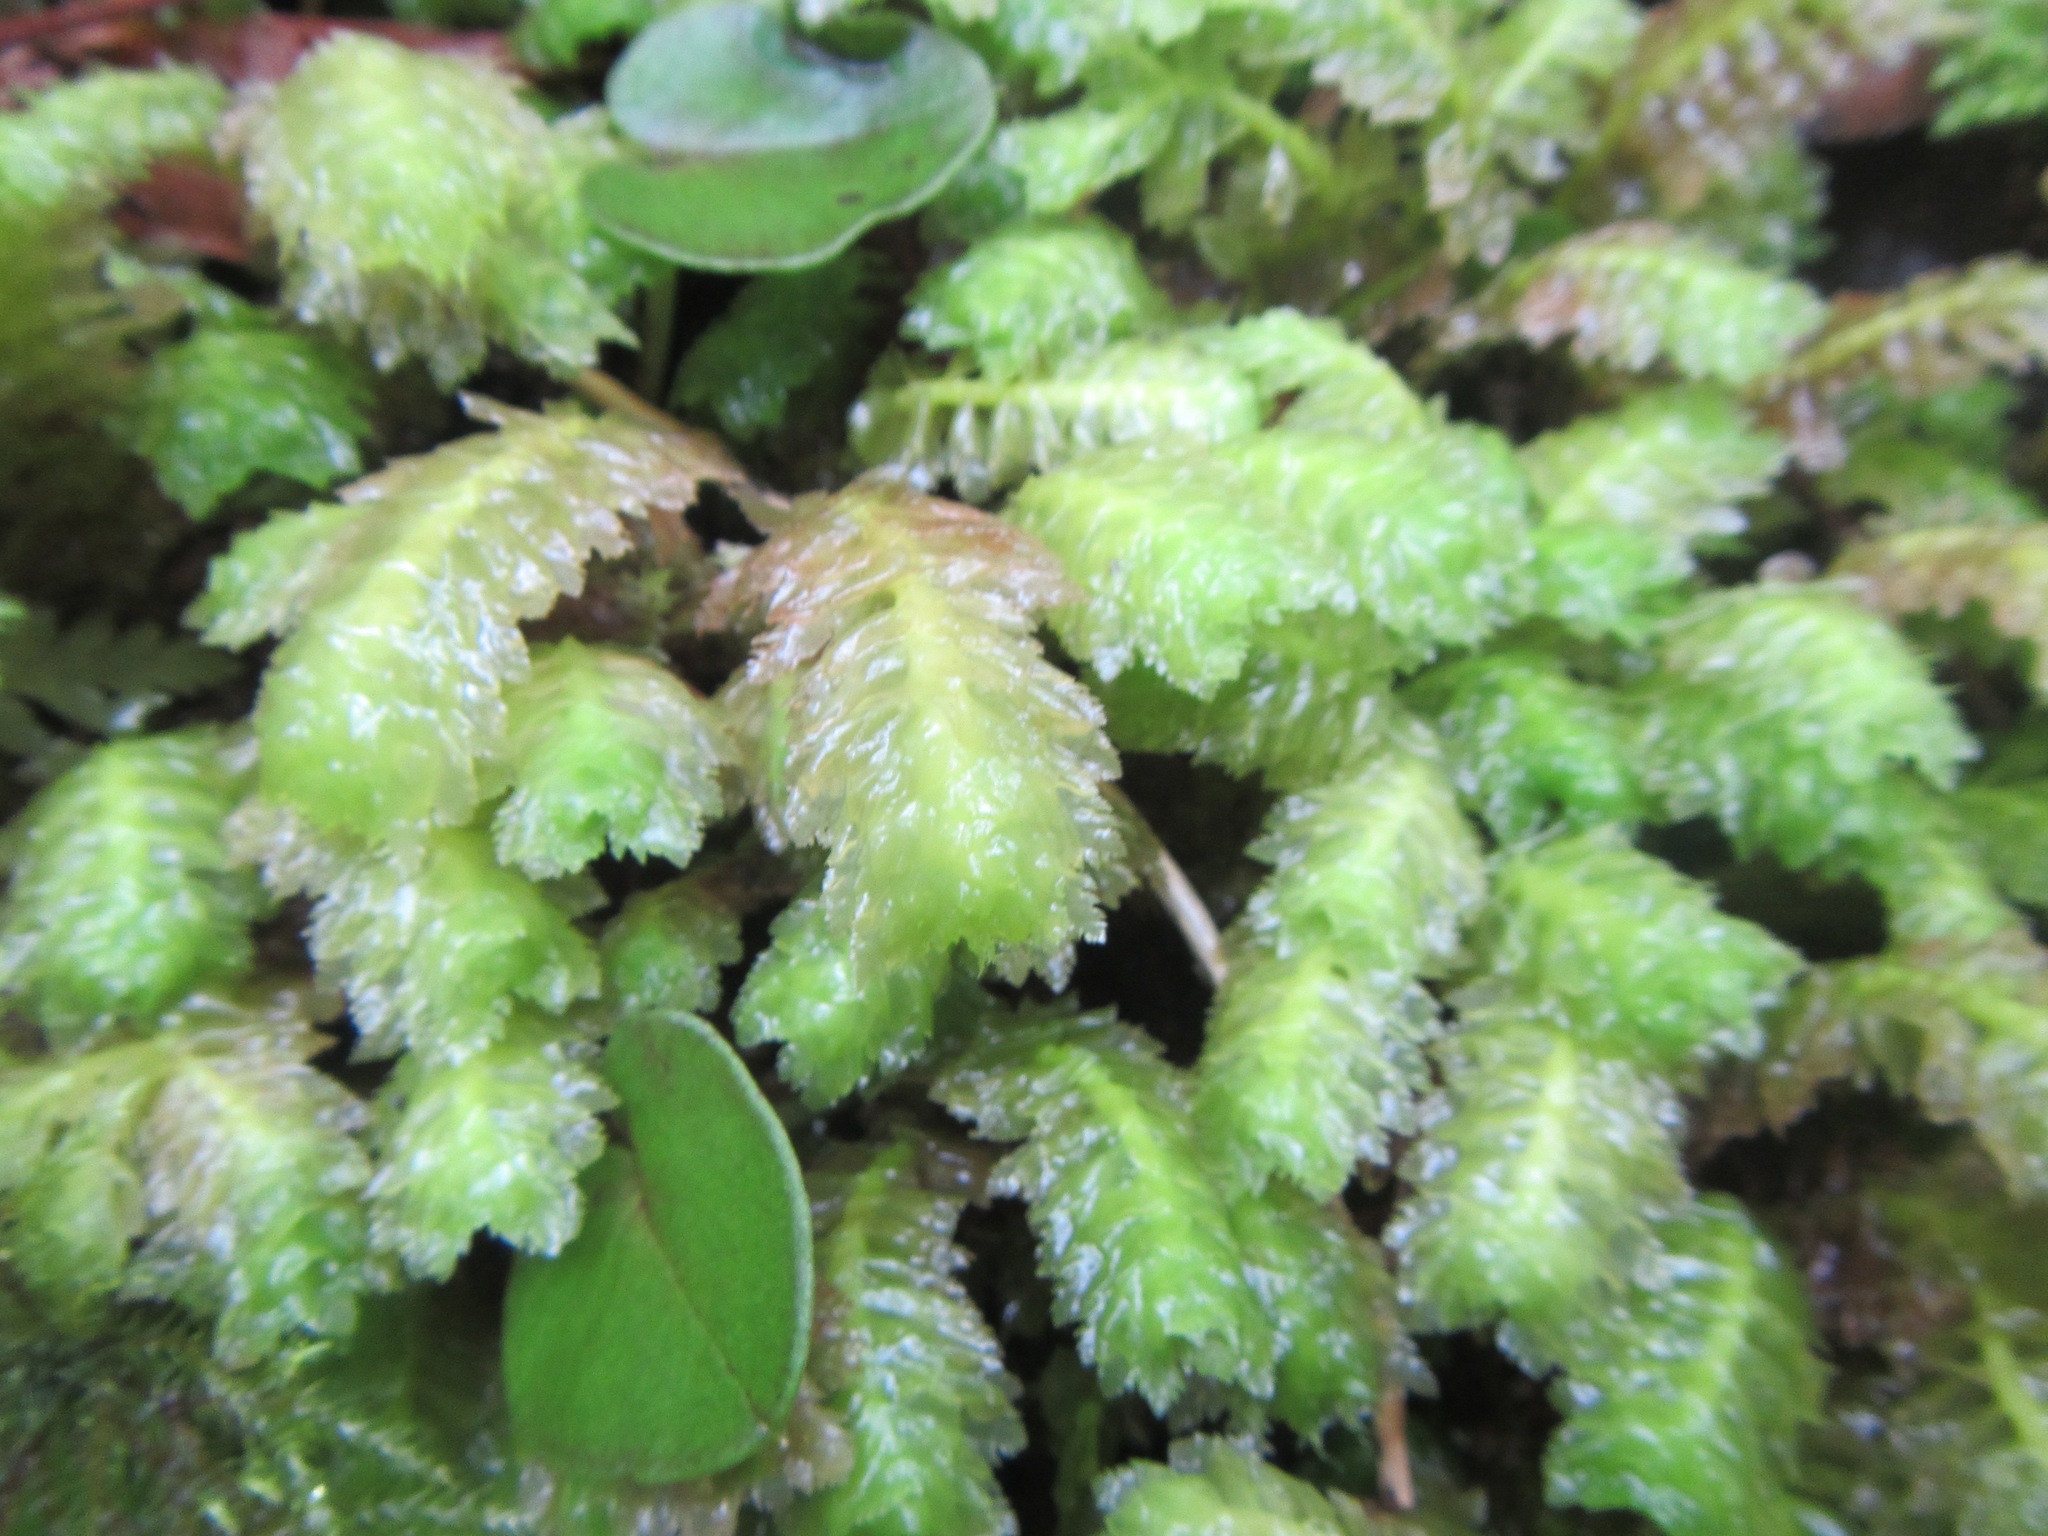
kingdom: Plantae
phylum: Marchantiophyta
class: Jungermanniopsida
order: Jungermanniales
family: Schistochilaceae
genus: Schistochila
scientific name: Schistochila appendiculata
